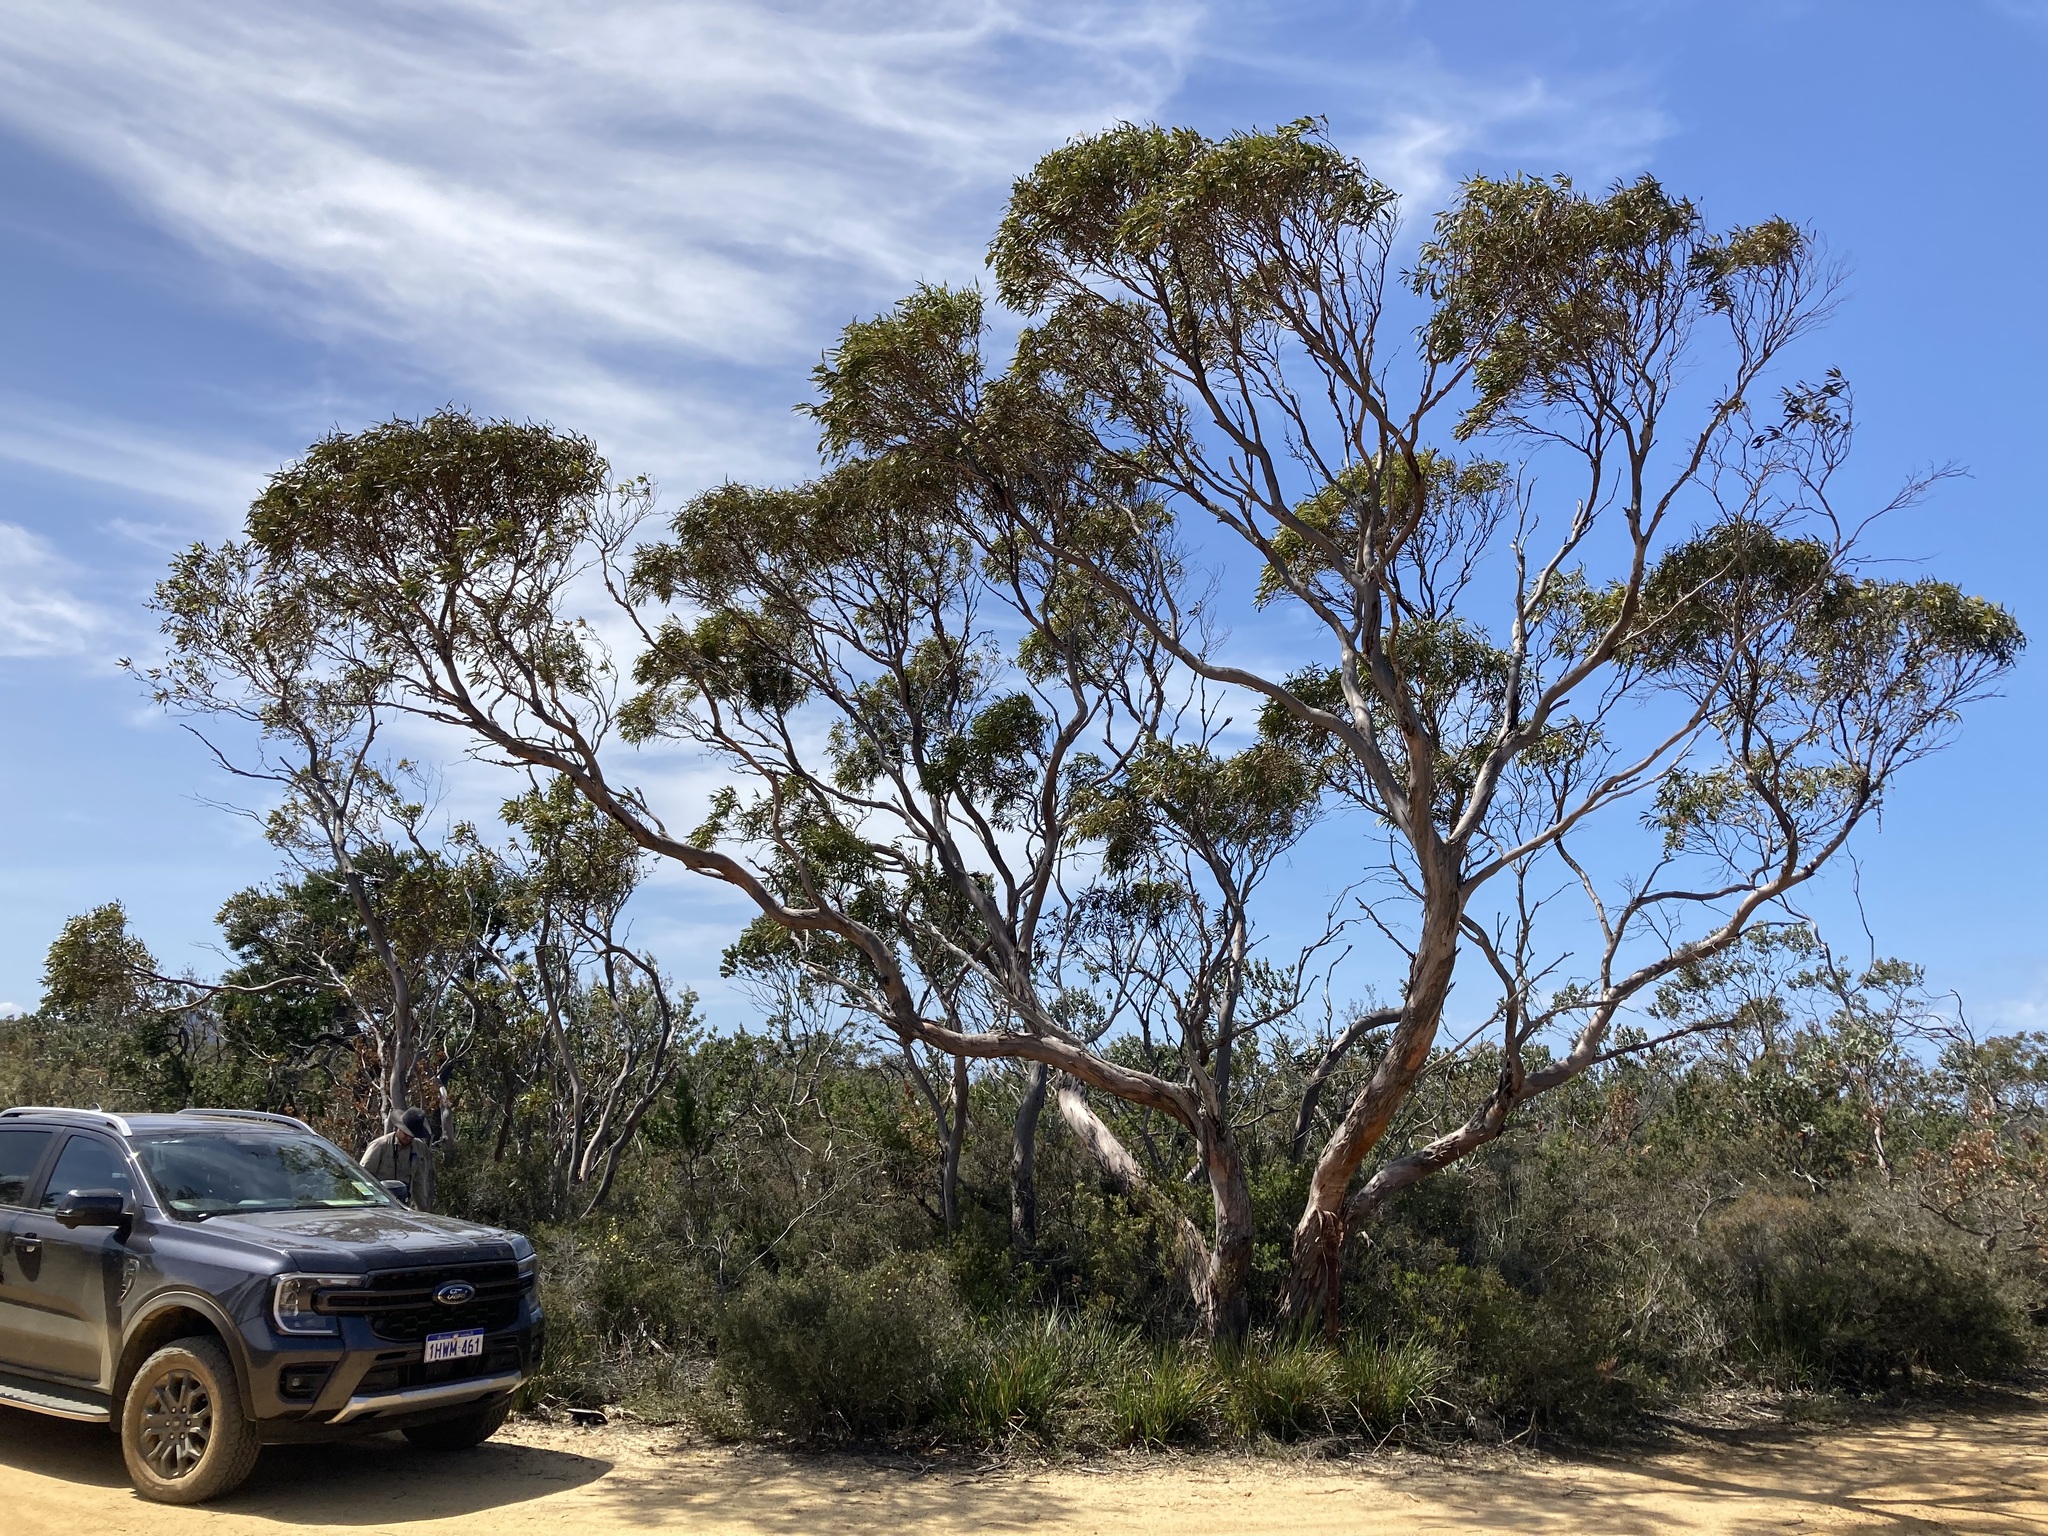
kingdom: Plantae
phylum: Tracheophyta
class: Magnoliopsida
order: Myrtales
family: Myrtaceae
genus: Eucalyptus
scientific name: Eucalyptus adesmophloia
